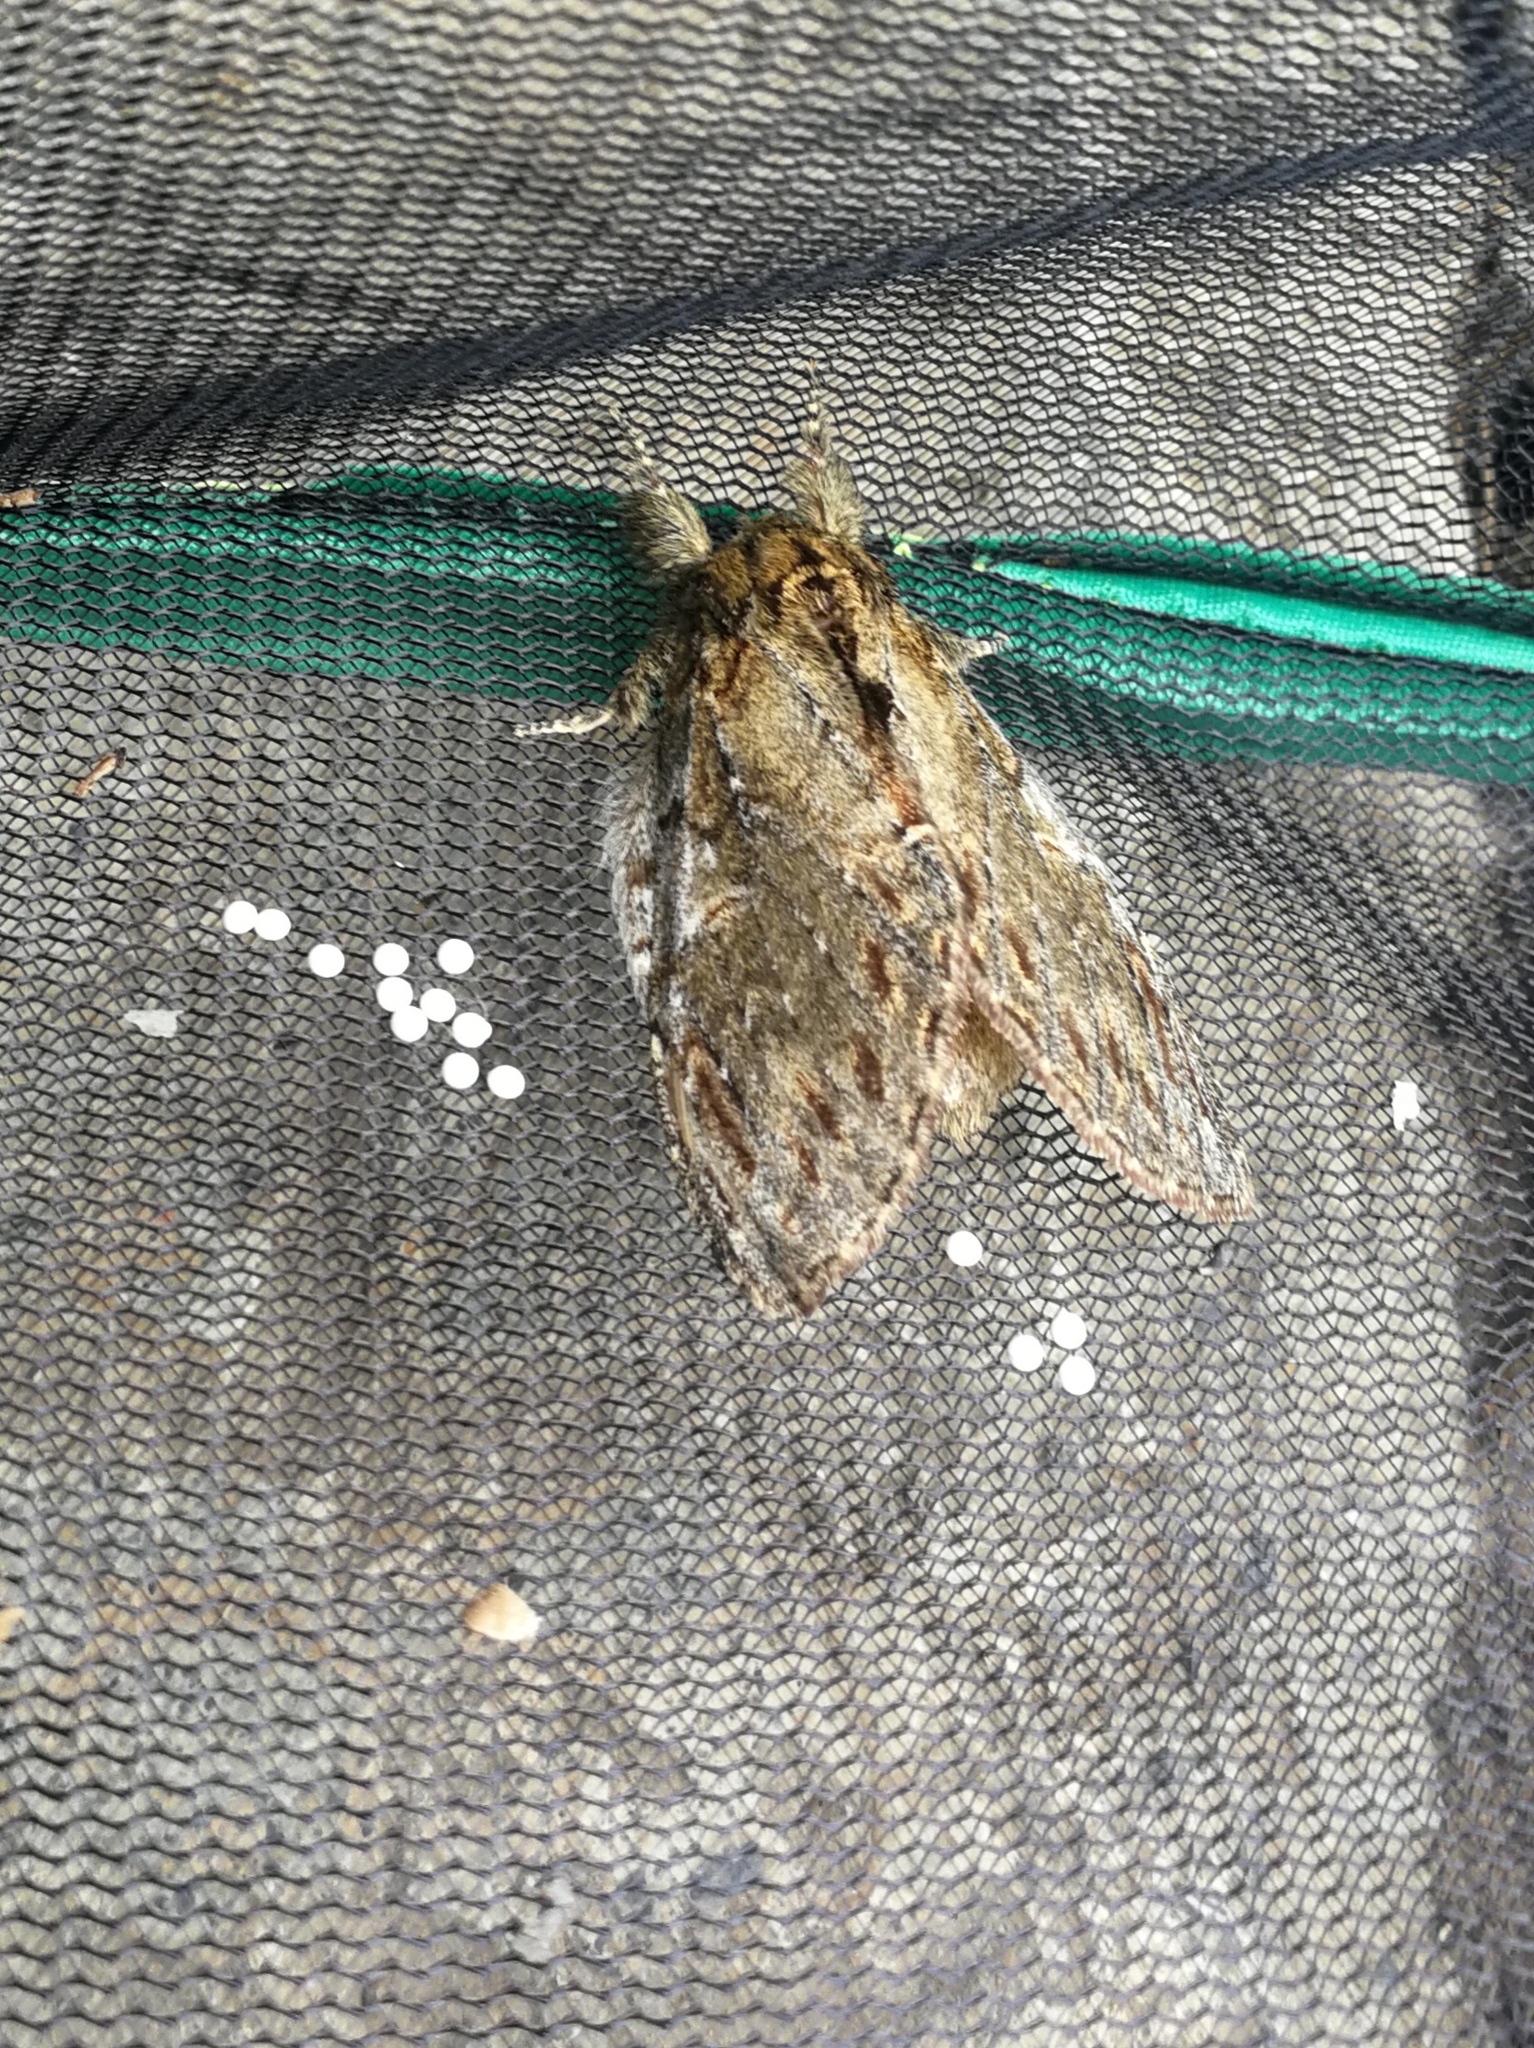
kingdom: Animalia
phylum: Arthropoda
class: Insecta
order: Lepidoptera
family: Notodontidae
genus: Peridea
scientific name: Peridea anceps
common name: Great prominent
